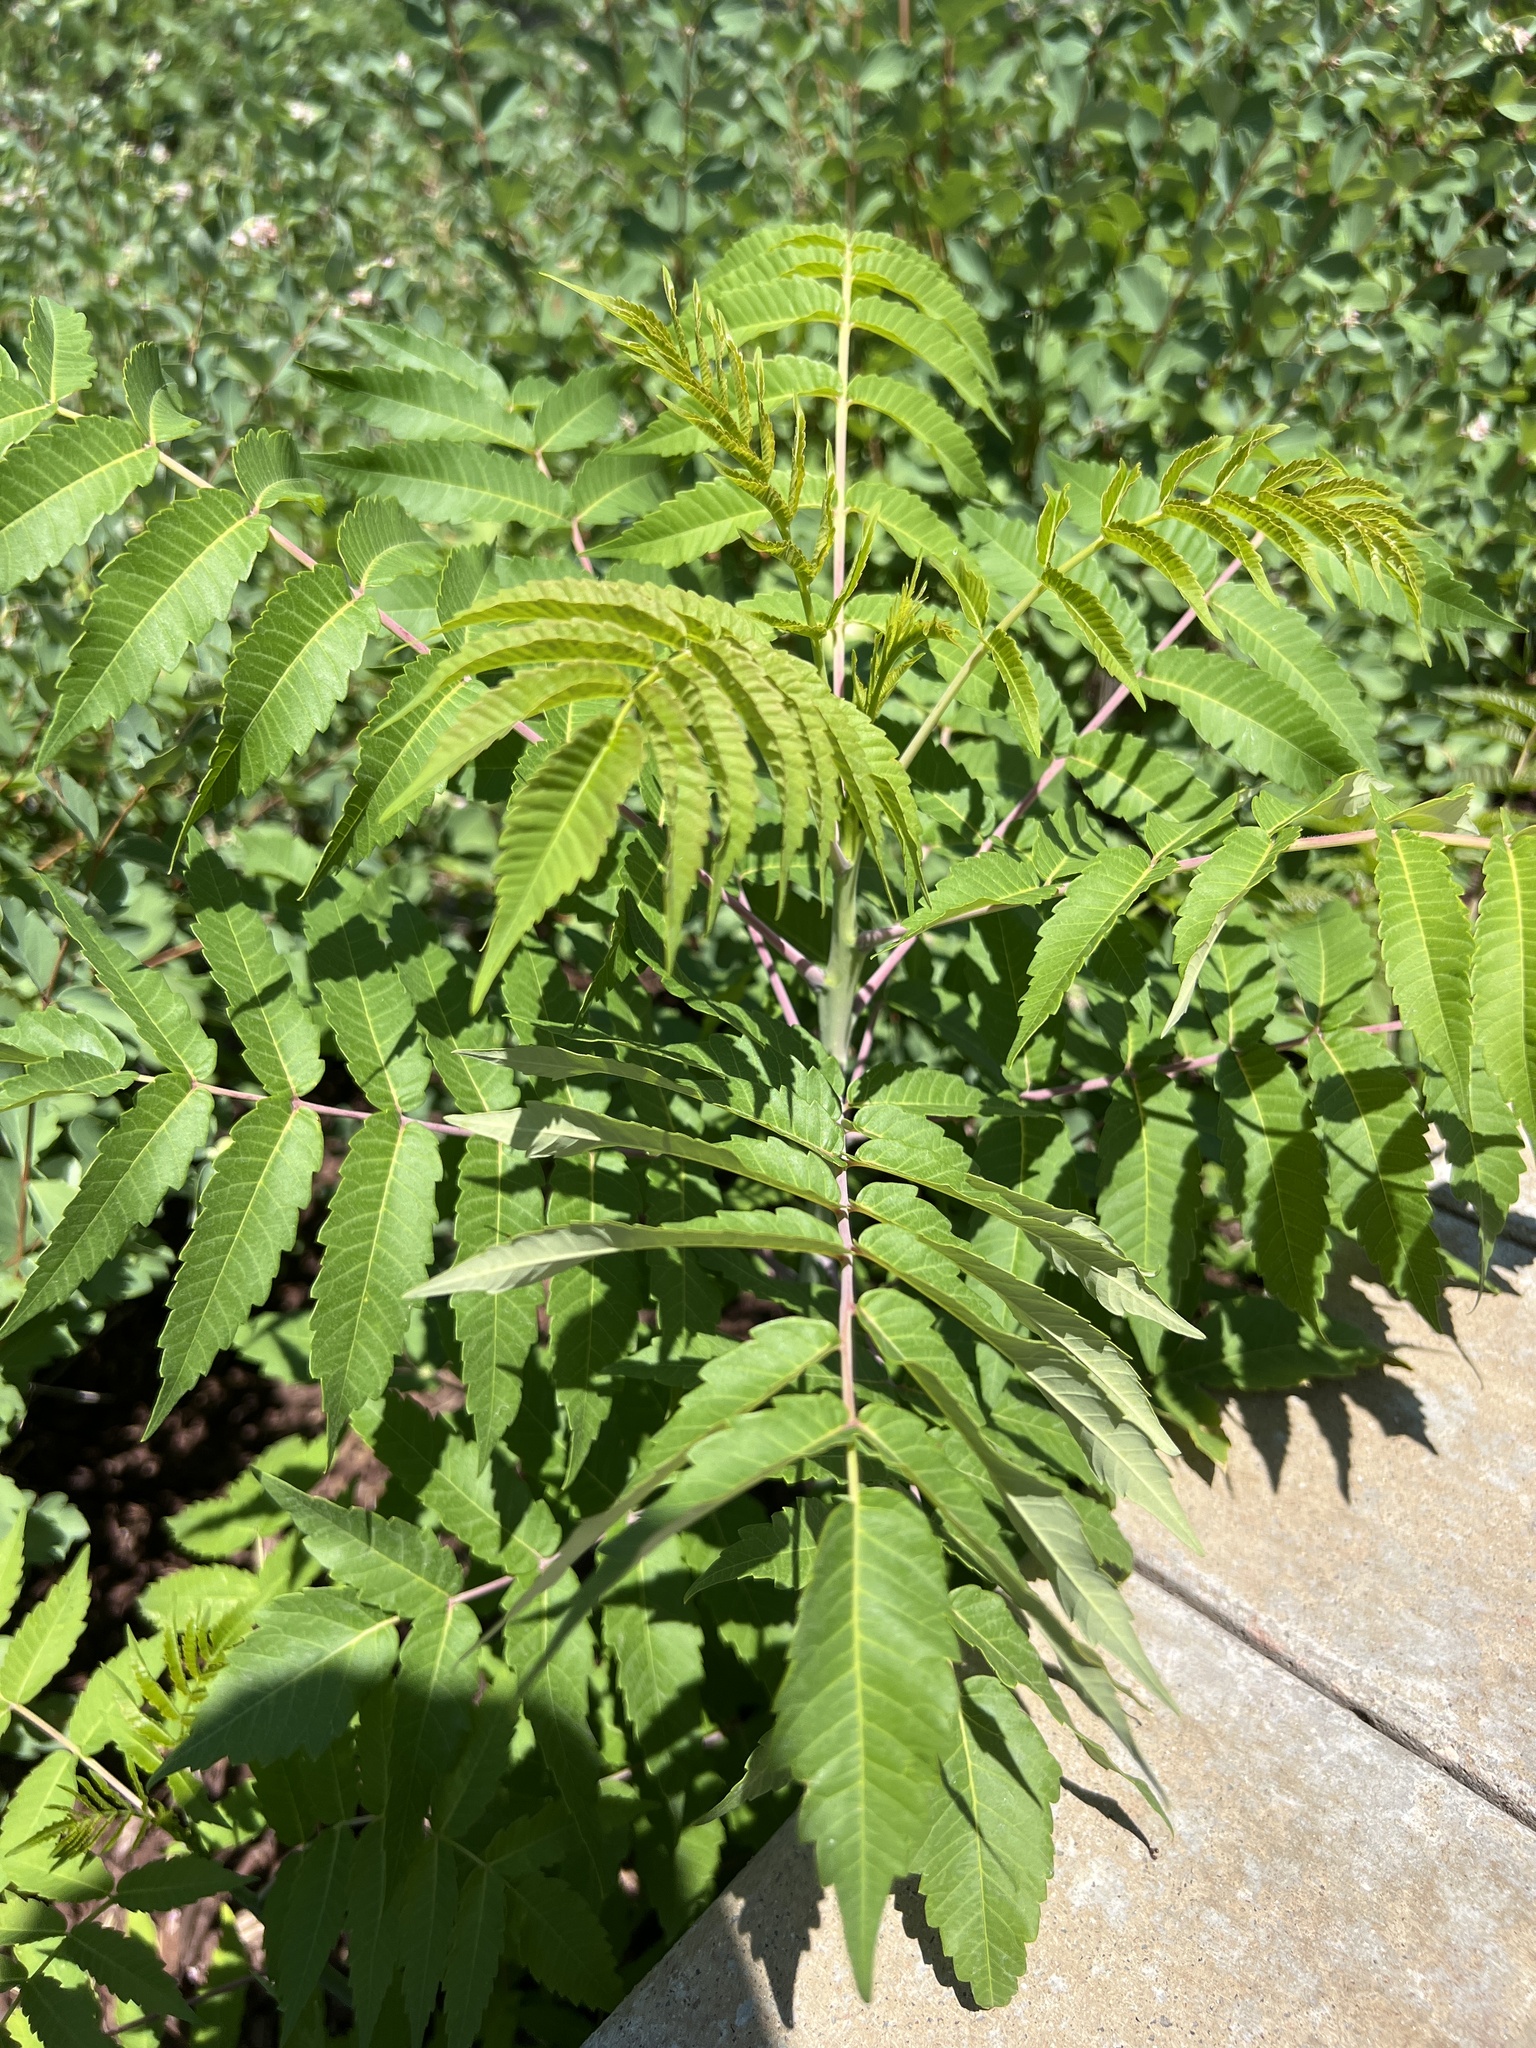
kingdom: Plantae
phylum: Tracheophyta
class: Magnoliopsida
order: Sapindales
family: Anacardiaceae
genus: Rhus
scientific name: Rhus glabra
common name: Scarlet sumac
